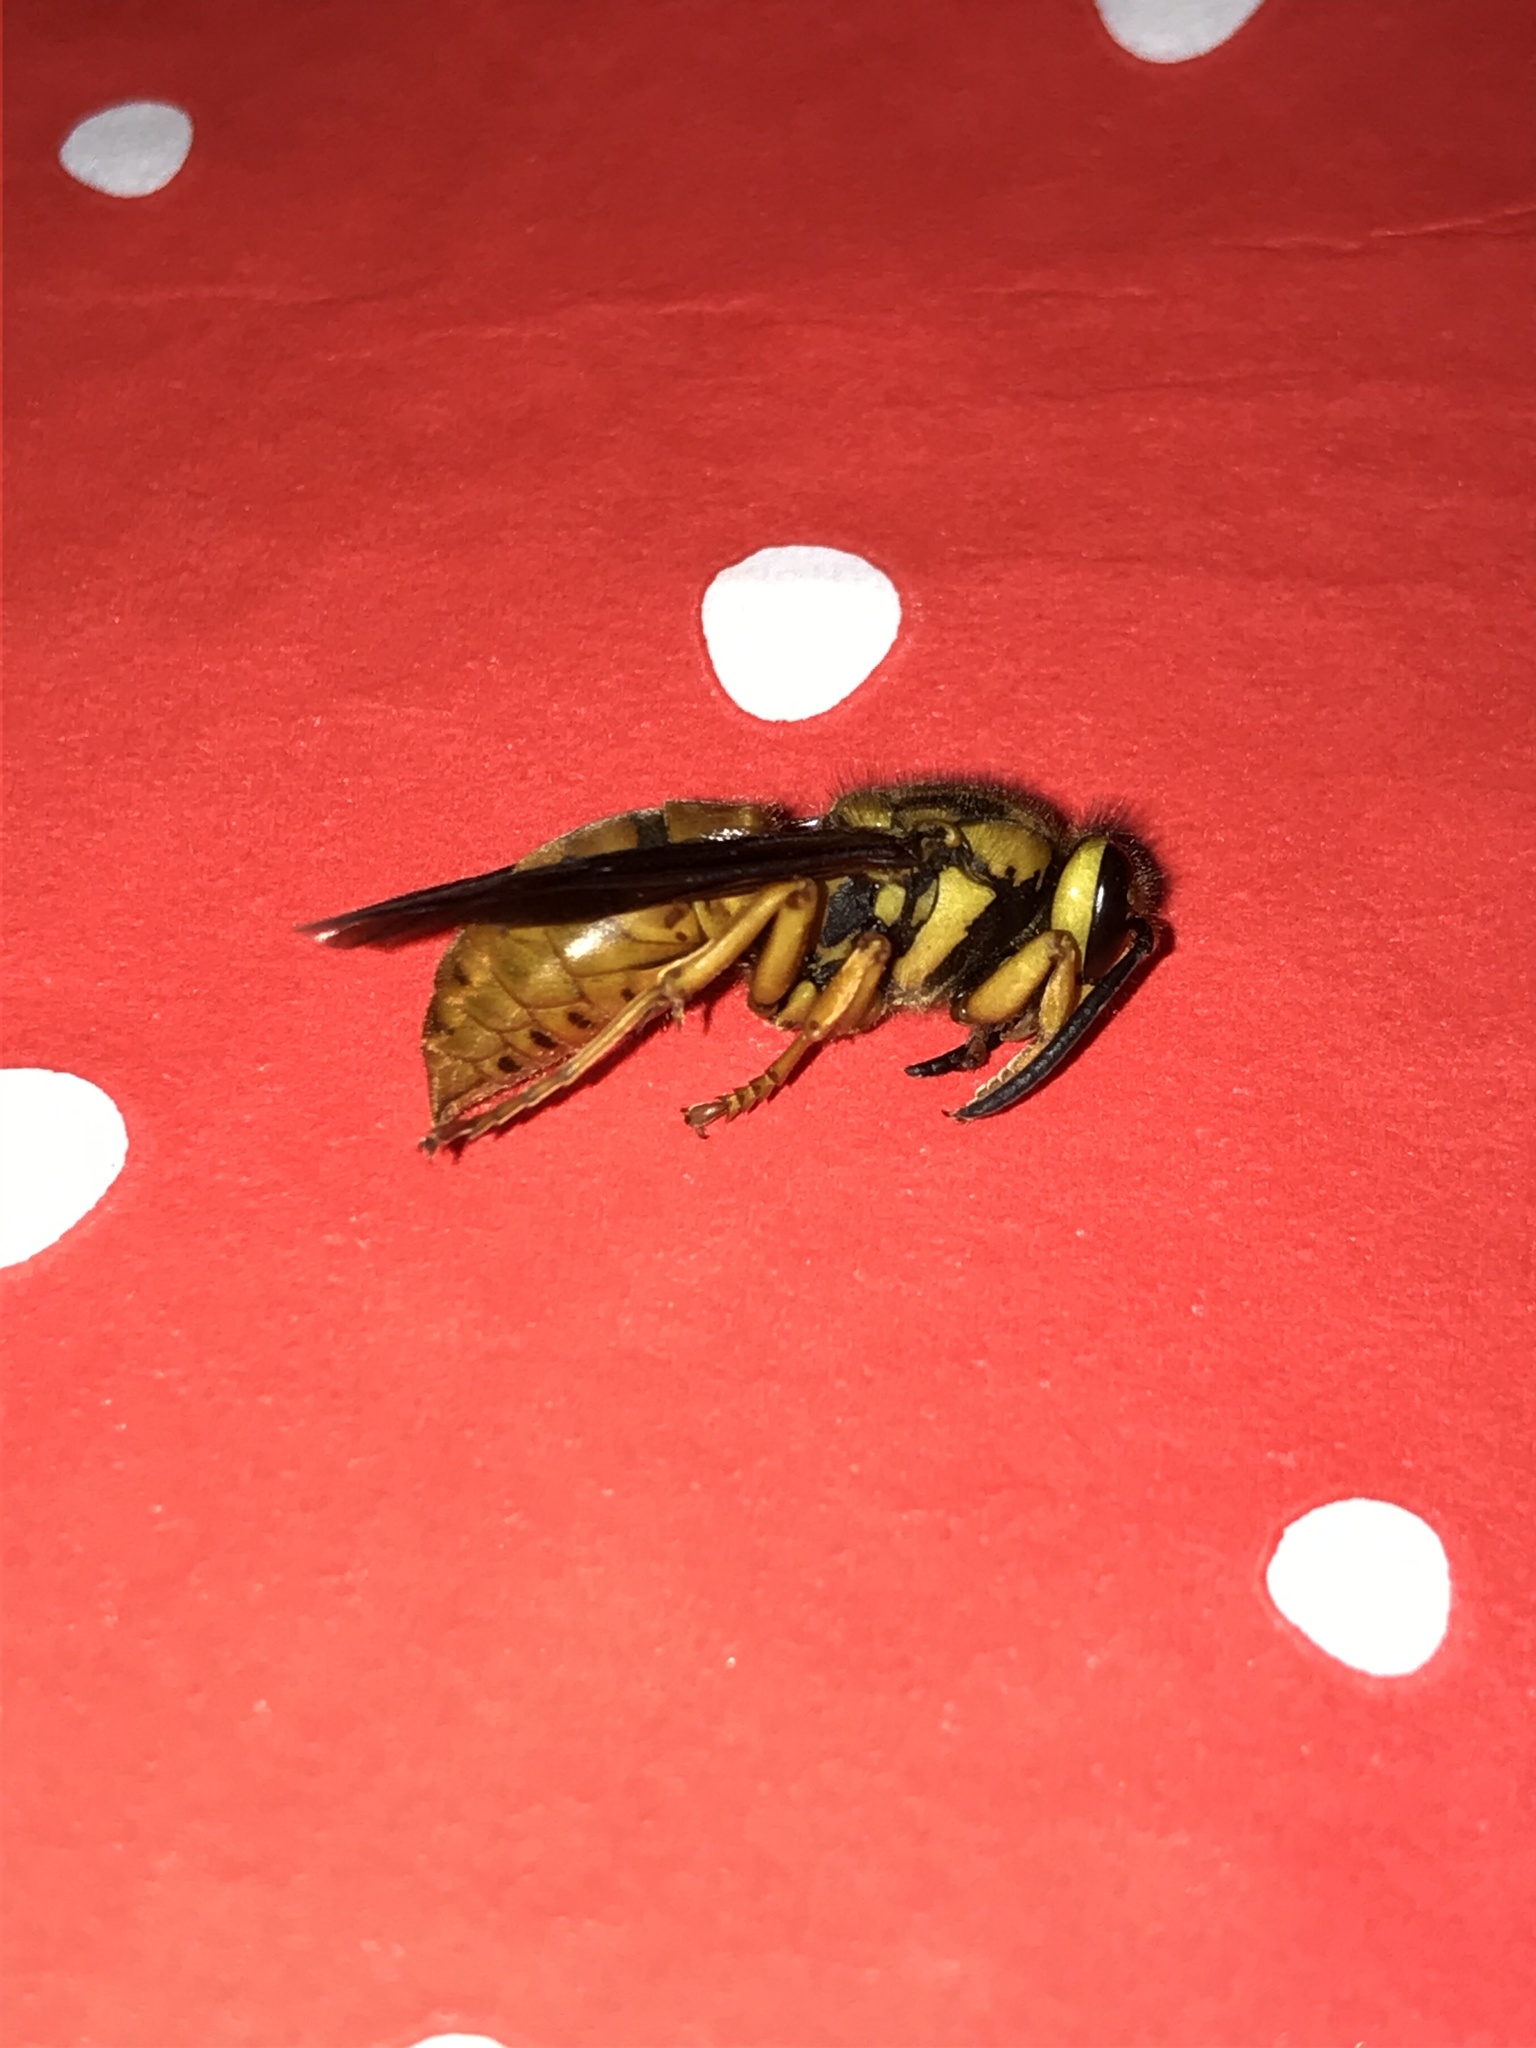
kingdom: Animalia
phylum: Arthropoda
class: Insecta
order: Hymenoptera
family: Vespidae
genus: Vespula
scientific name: Vespula squamosa
